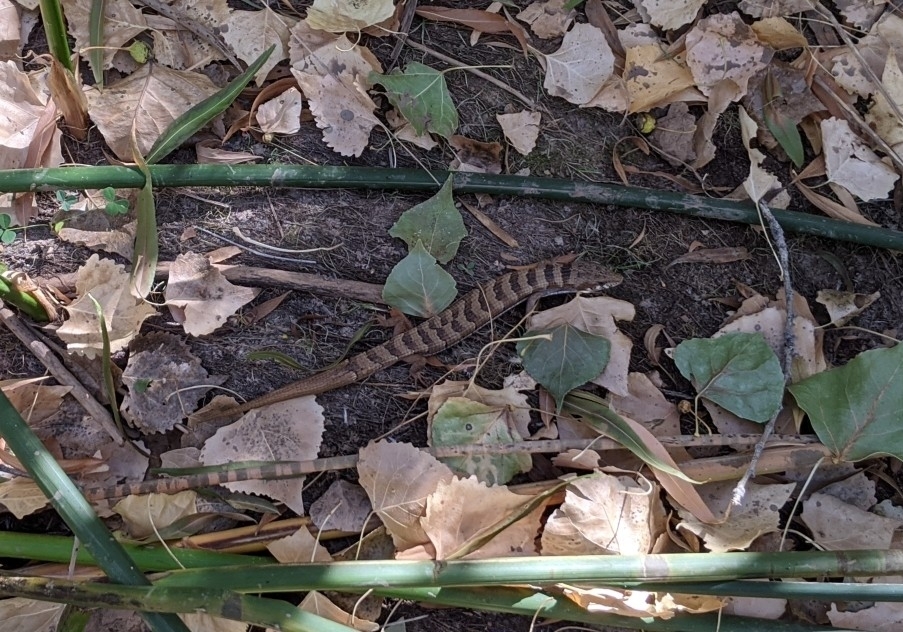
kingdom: Animalia
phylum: Chordata
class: Squamata
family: Anguidae
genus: Elgaria
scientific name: Elgaria kingii
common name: Madrean alligator lizard
